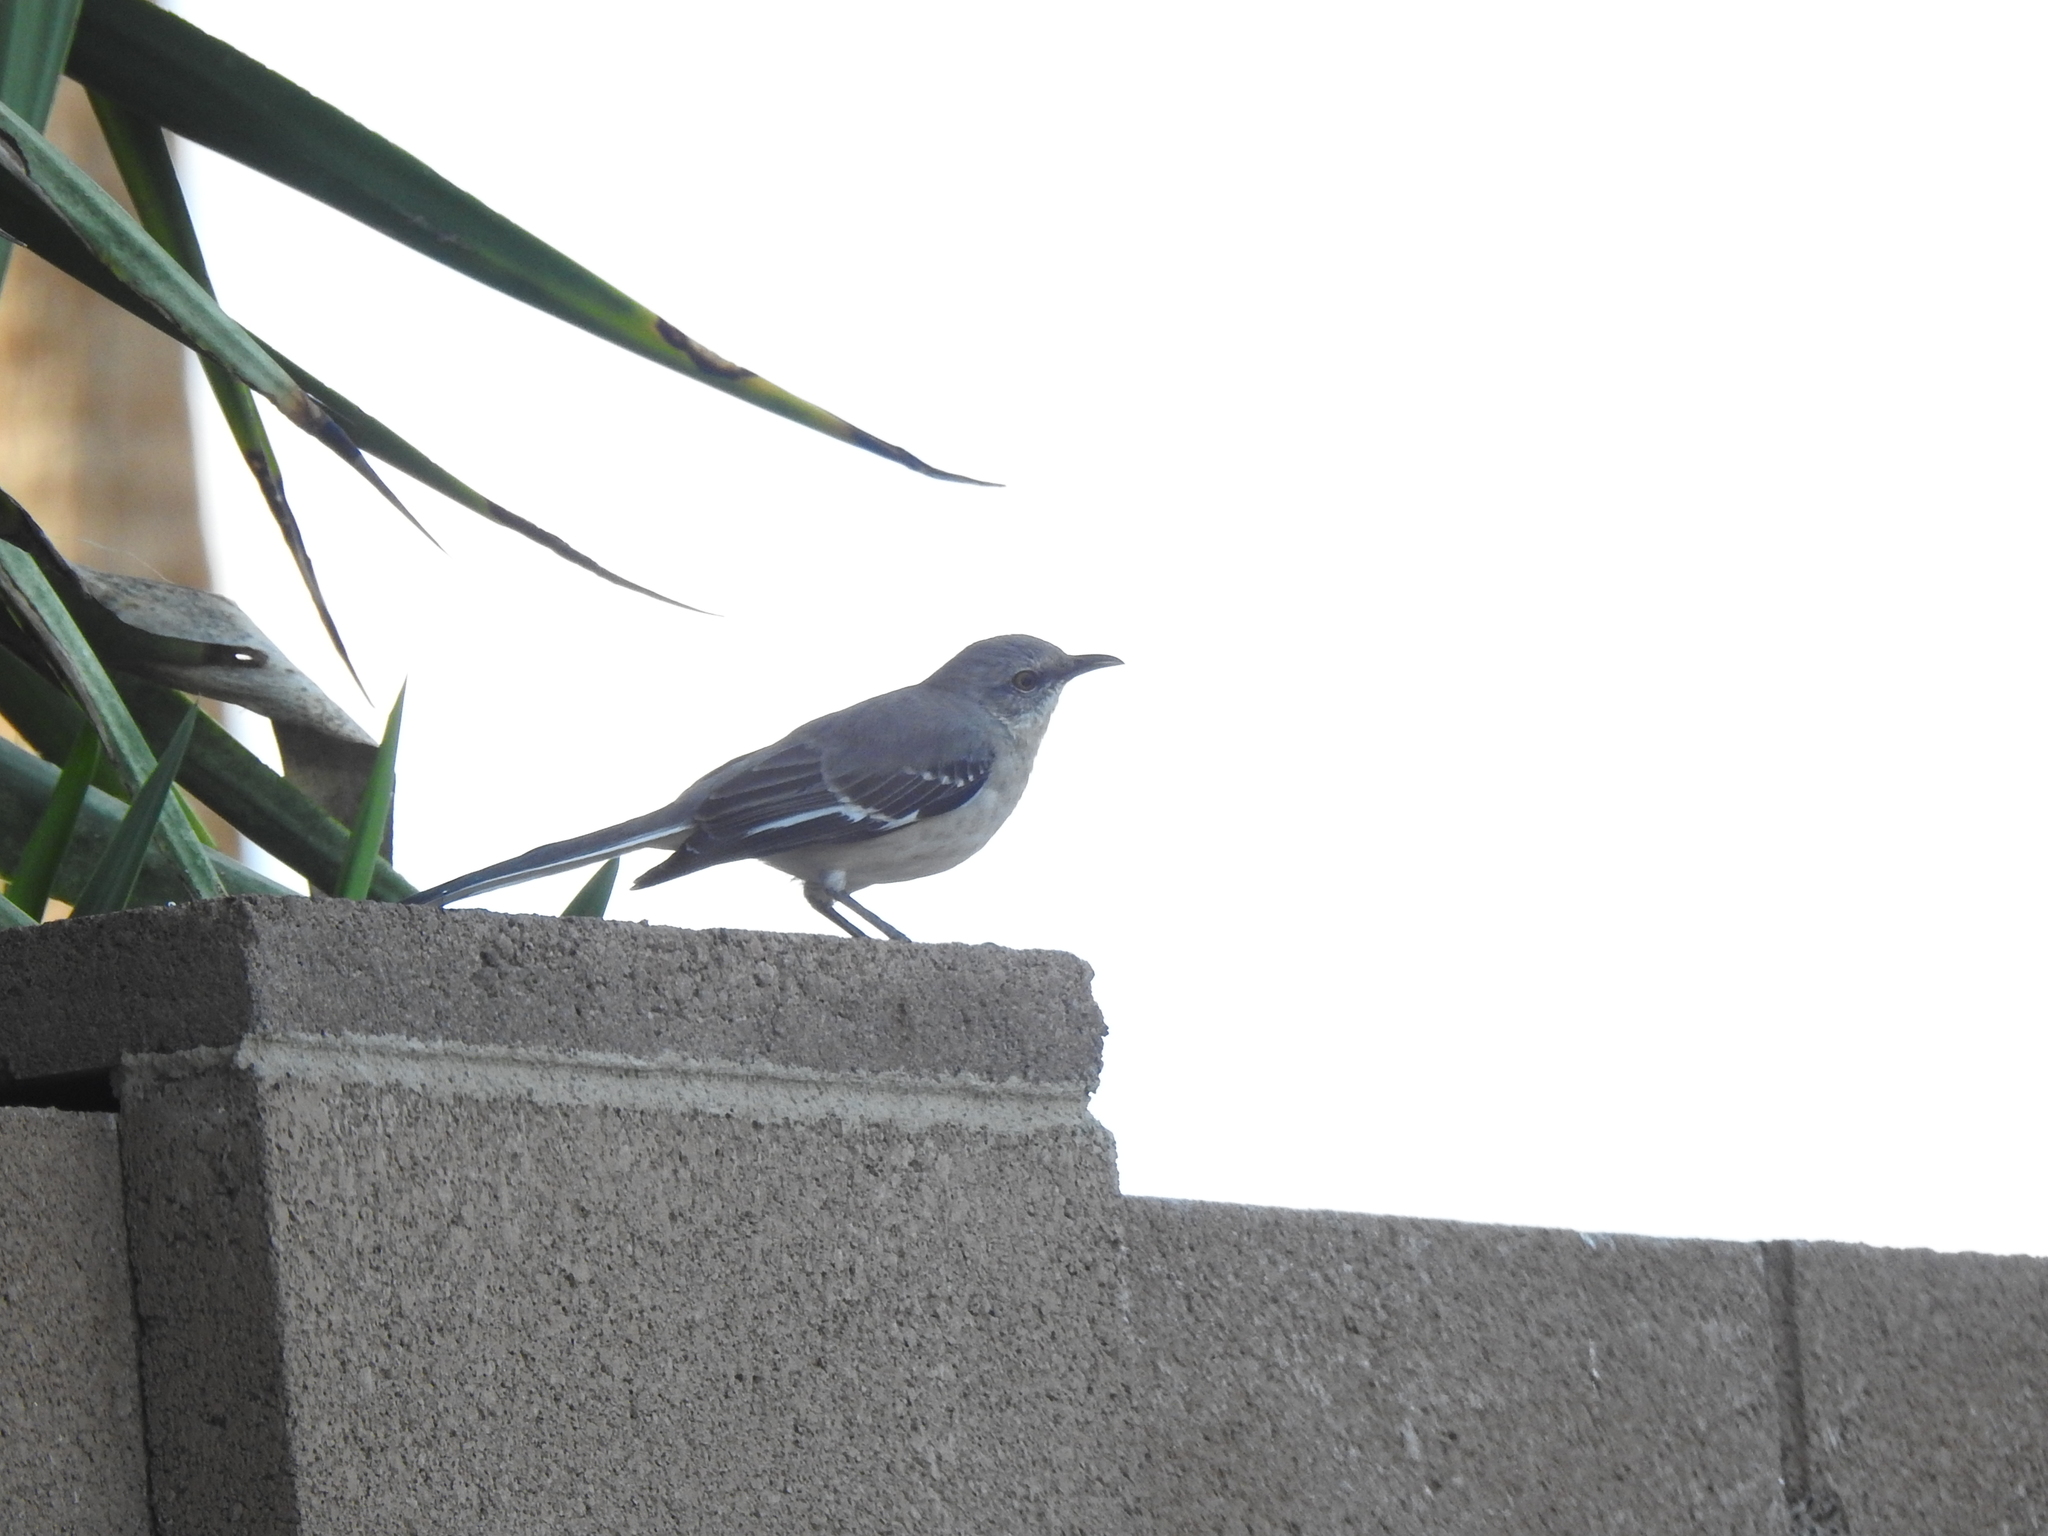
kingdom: Animalia
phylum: Chordata
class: Aves
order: Passeriformes
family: Mimidae
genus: Mimus
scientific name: Mimus polyglottos
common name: Northern mockingbird
